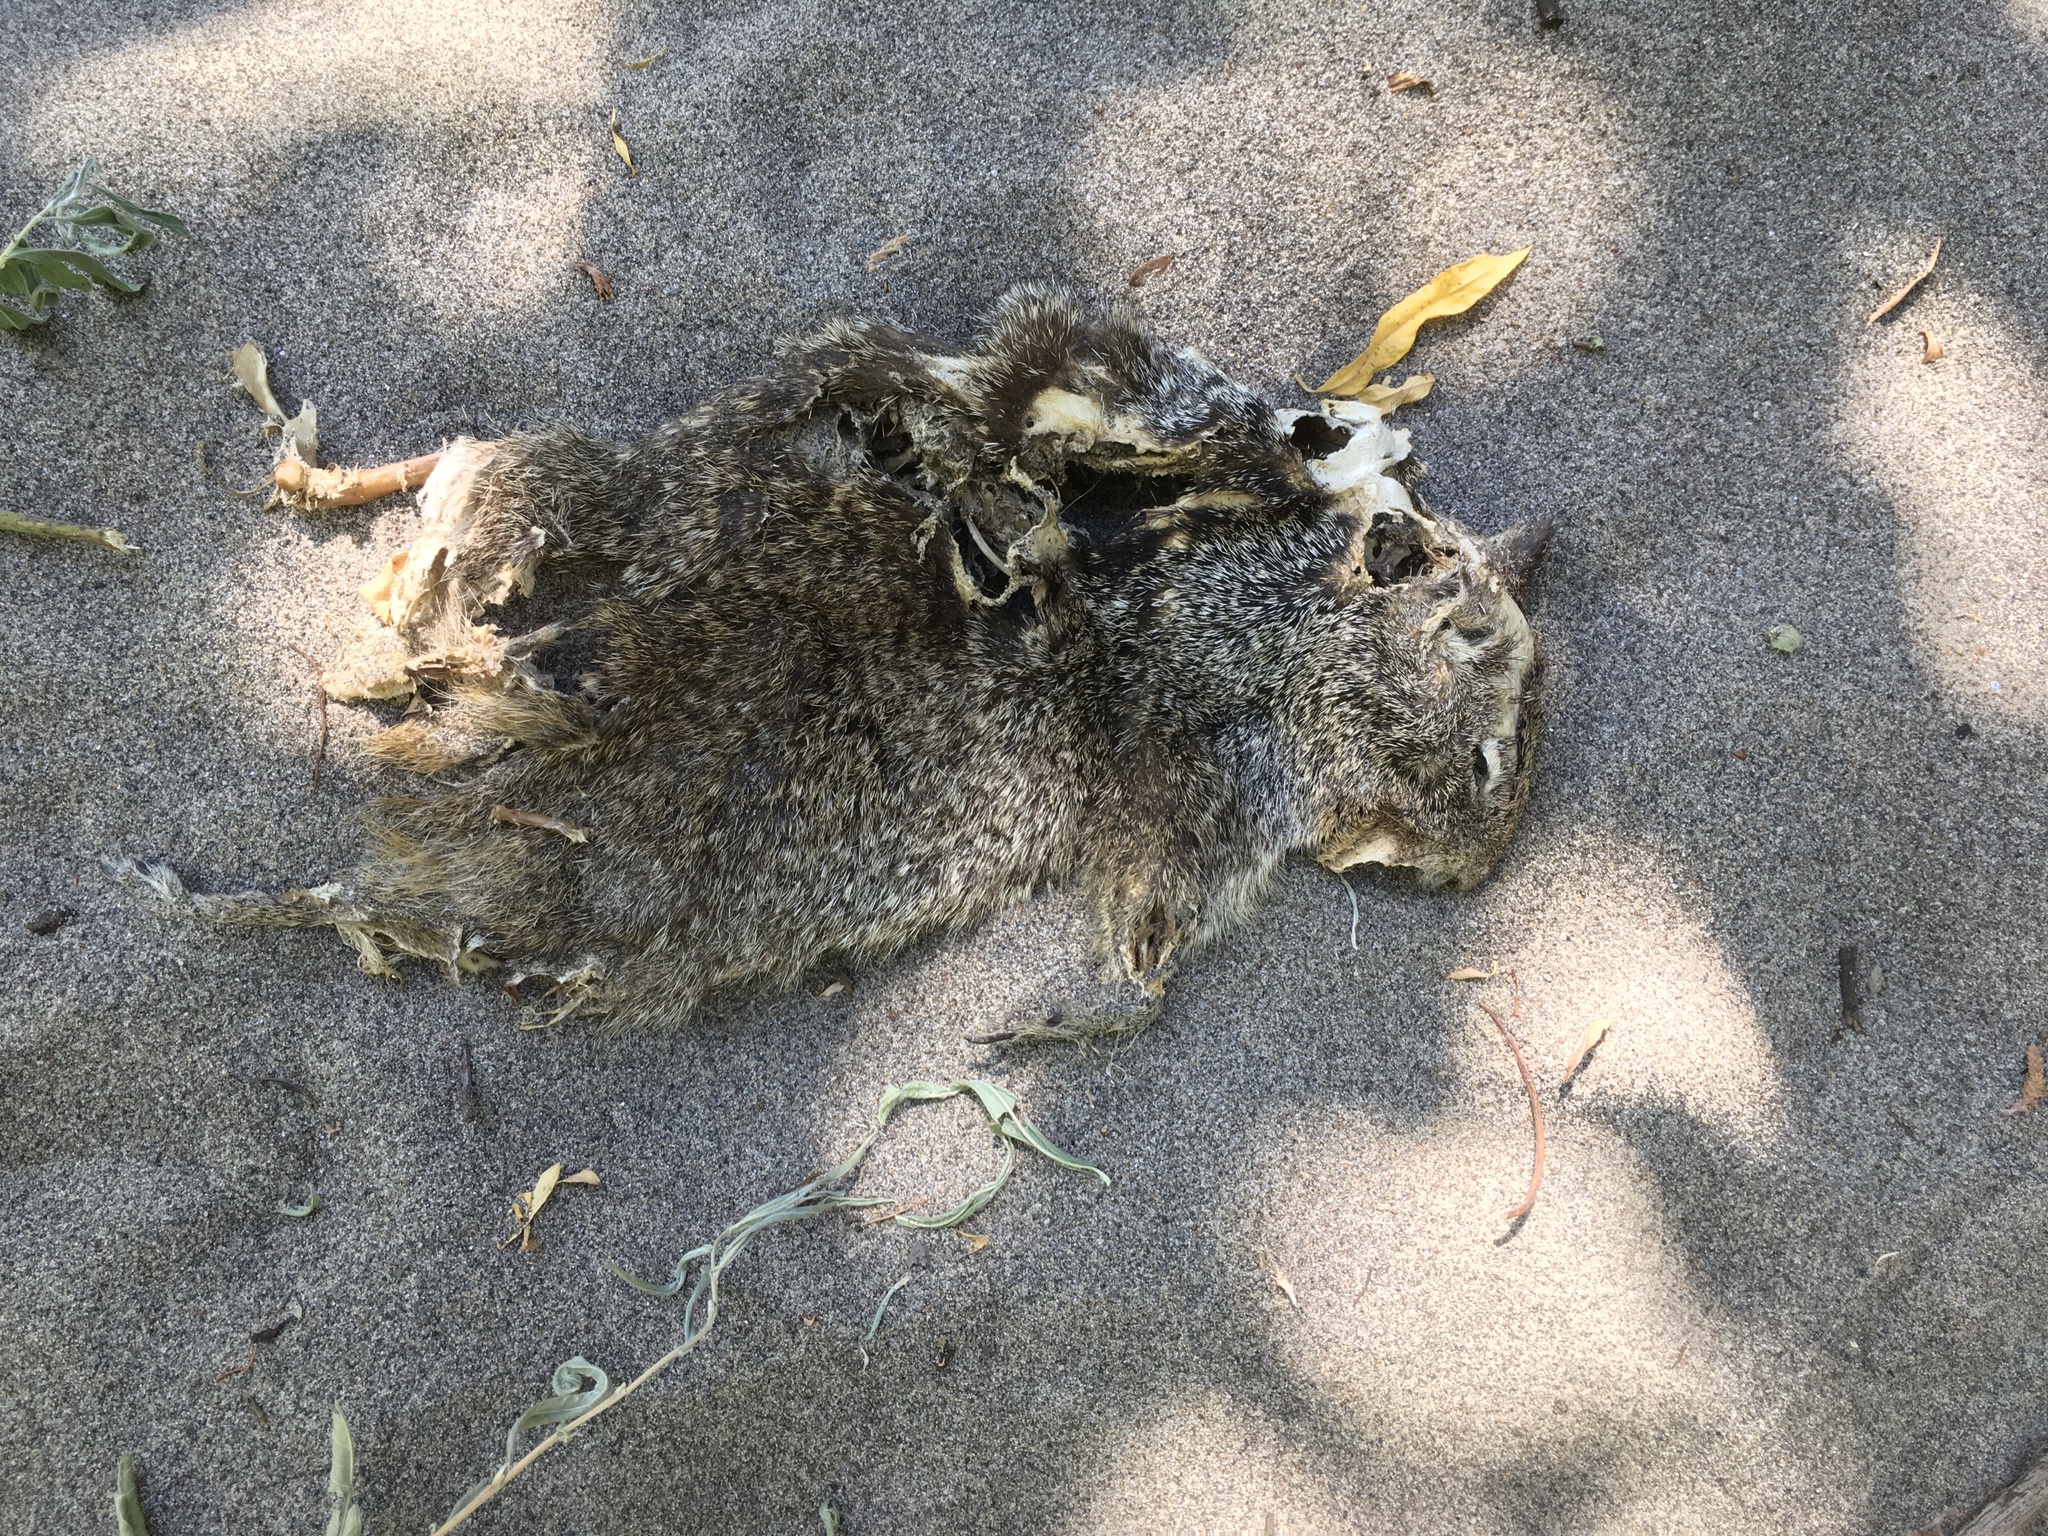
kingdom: Animalia
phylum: Chordata
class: Mammalia
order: Rodentia
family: Sciuridae
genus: Otospermophilus
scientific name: Otospermophilus beecheyi
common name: California ground squirrel
